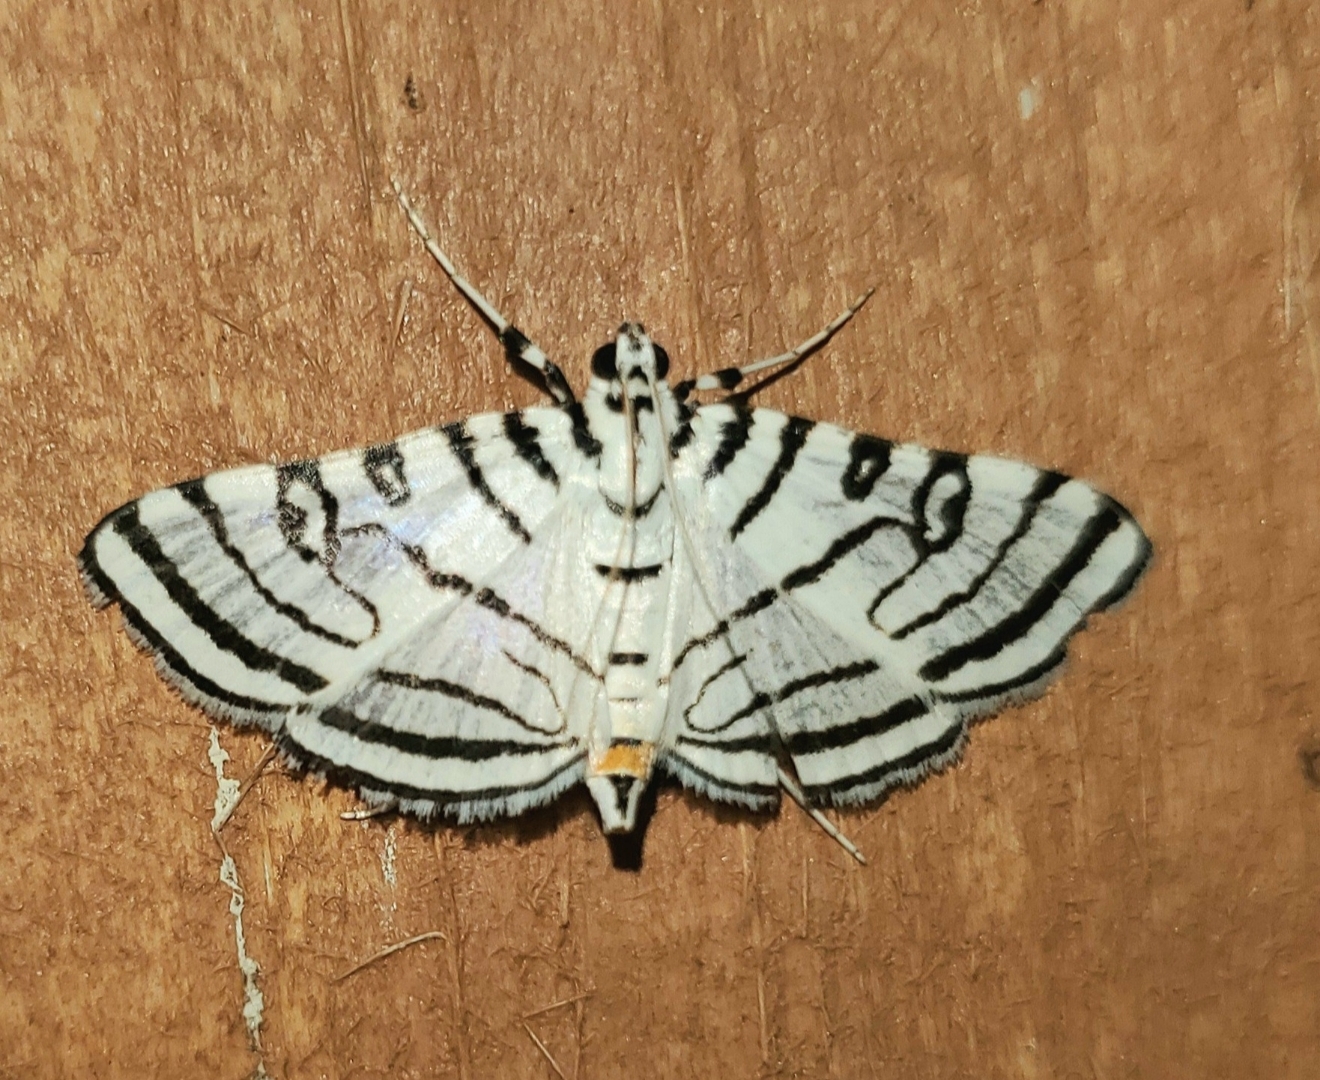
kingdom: Animalia
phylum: Arthropoda
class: Insecta
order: Lepidoptera
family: Crambidae
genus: Conchylodes
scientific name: Conchylodes concinnalis
